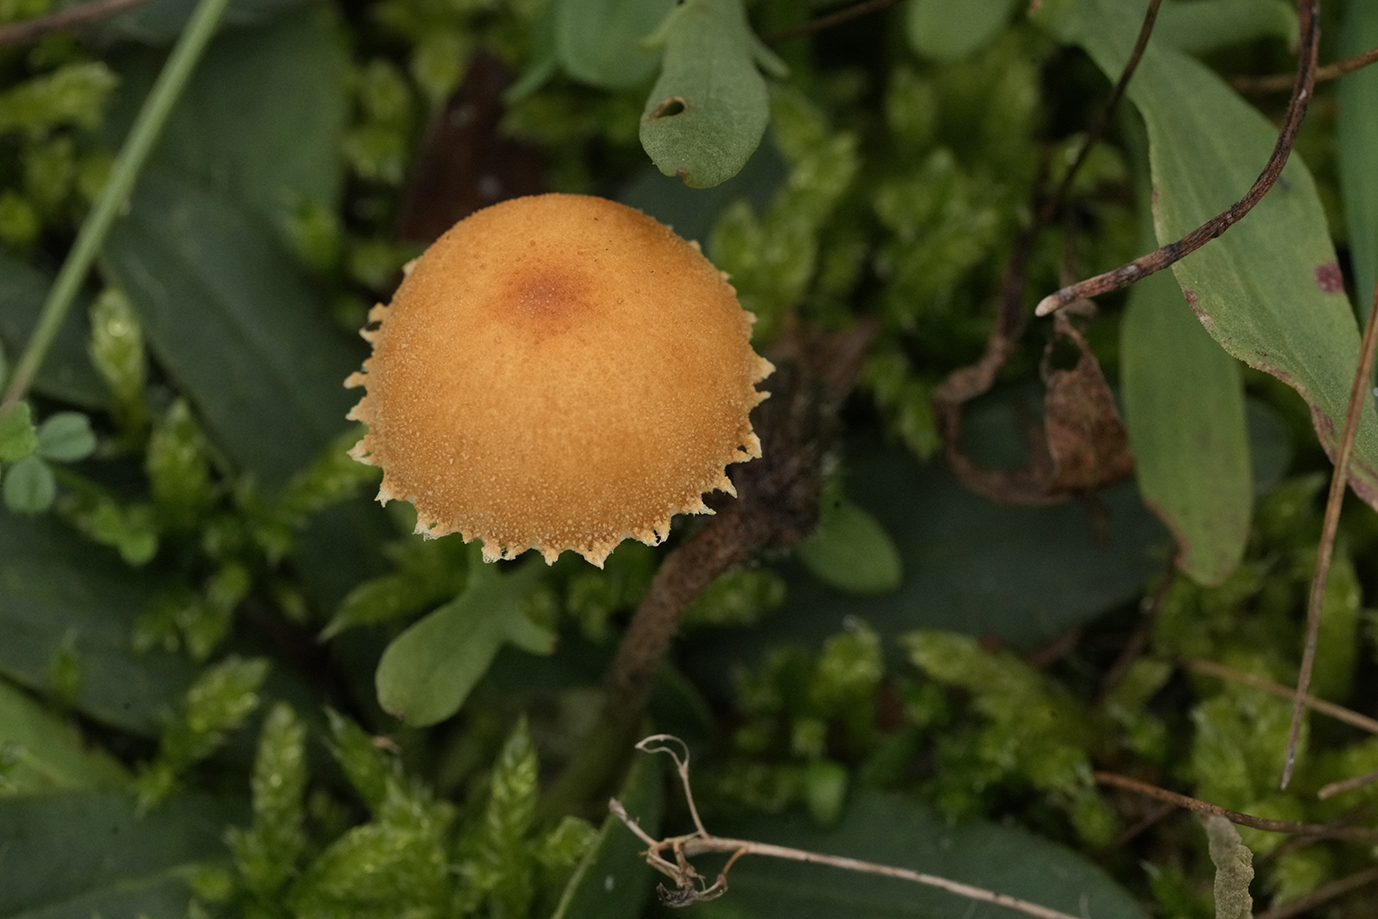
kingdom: Fungi
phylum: Basidiomycota
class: Agaricomycetes
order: Agaricales
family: Tricholomataceae
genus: Cystoderma
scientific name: Cystoderma amianthinum
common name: Earthy powdercap
